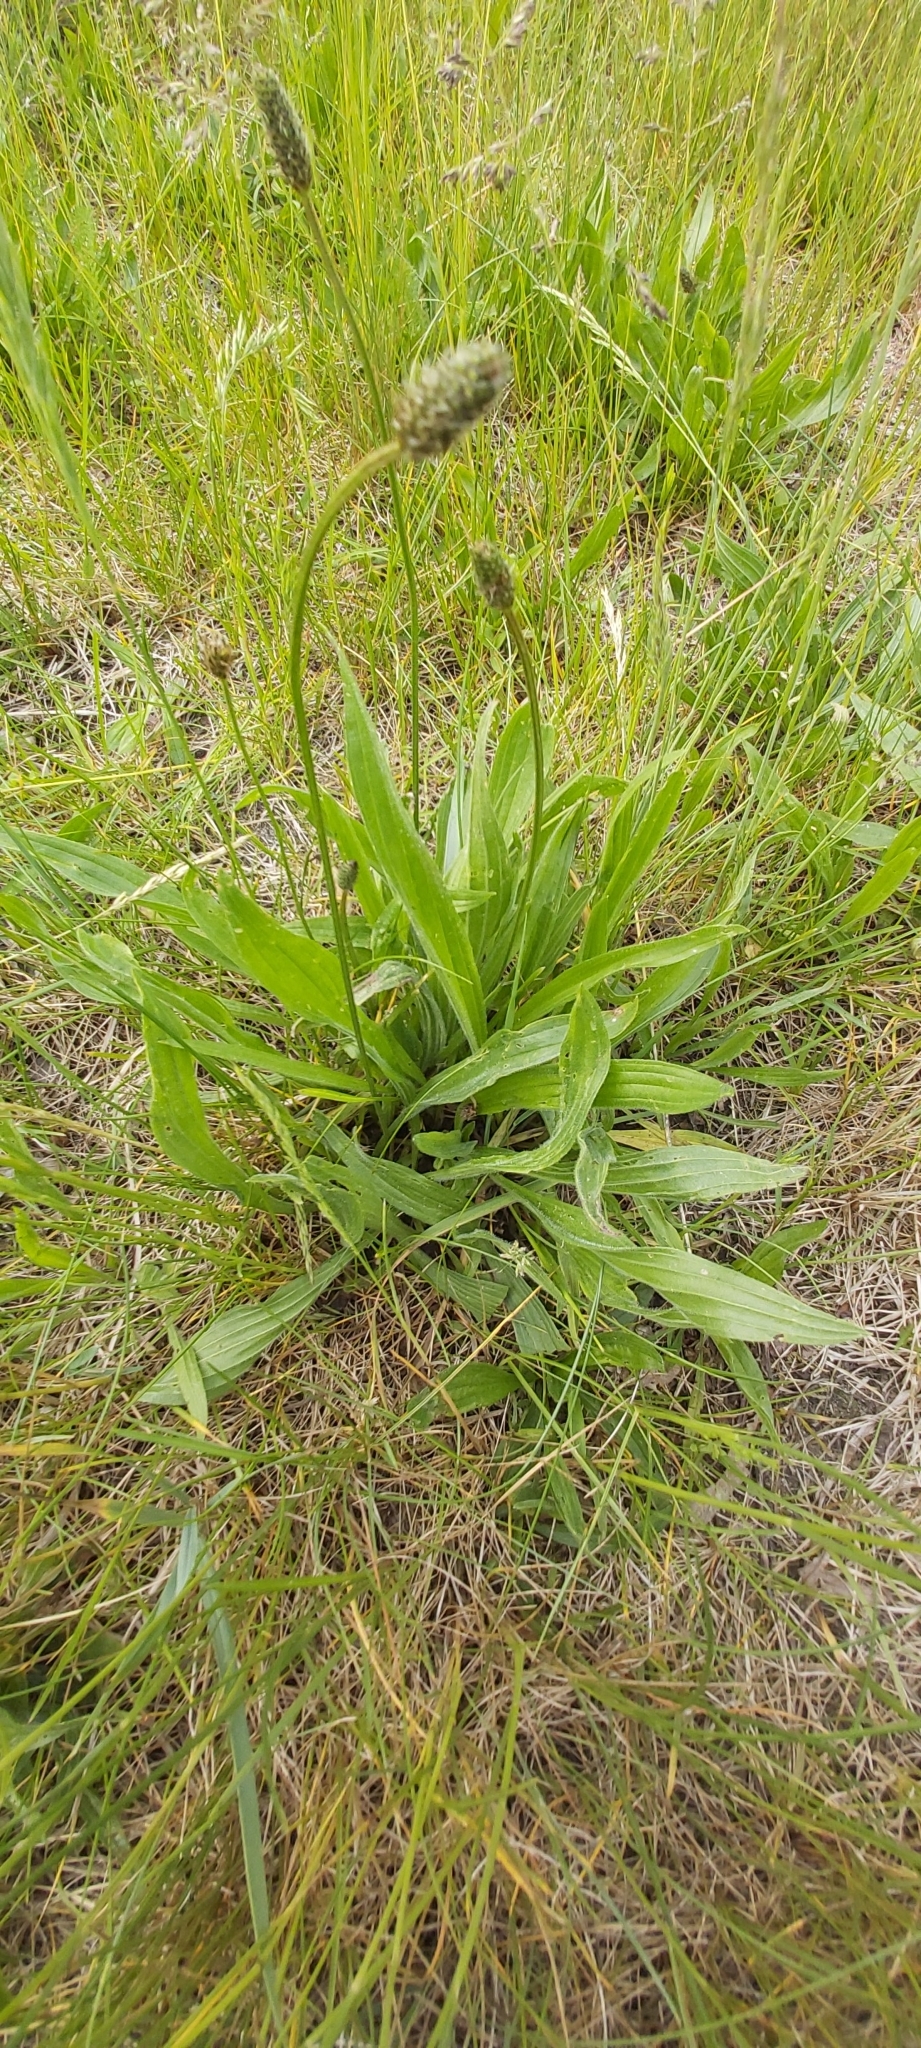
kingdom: Plantae
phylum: Tracheophyta
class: Magnoliopsida
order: Lamiales
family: Plantaginaceae
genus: Plantago
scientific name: Plantago lanceolata
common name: Ribwort plantain
